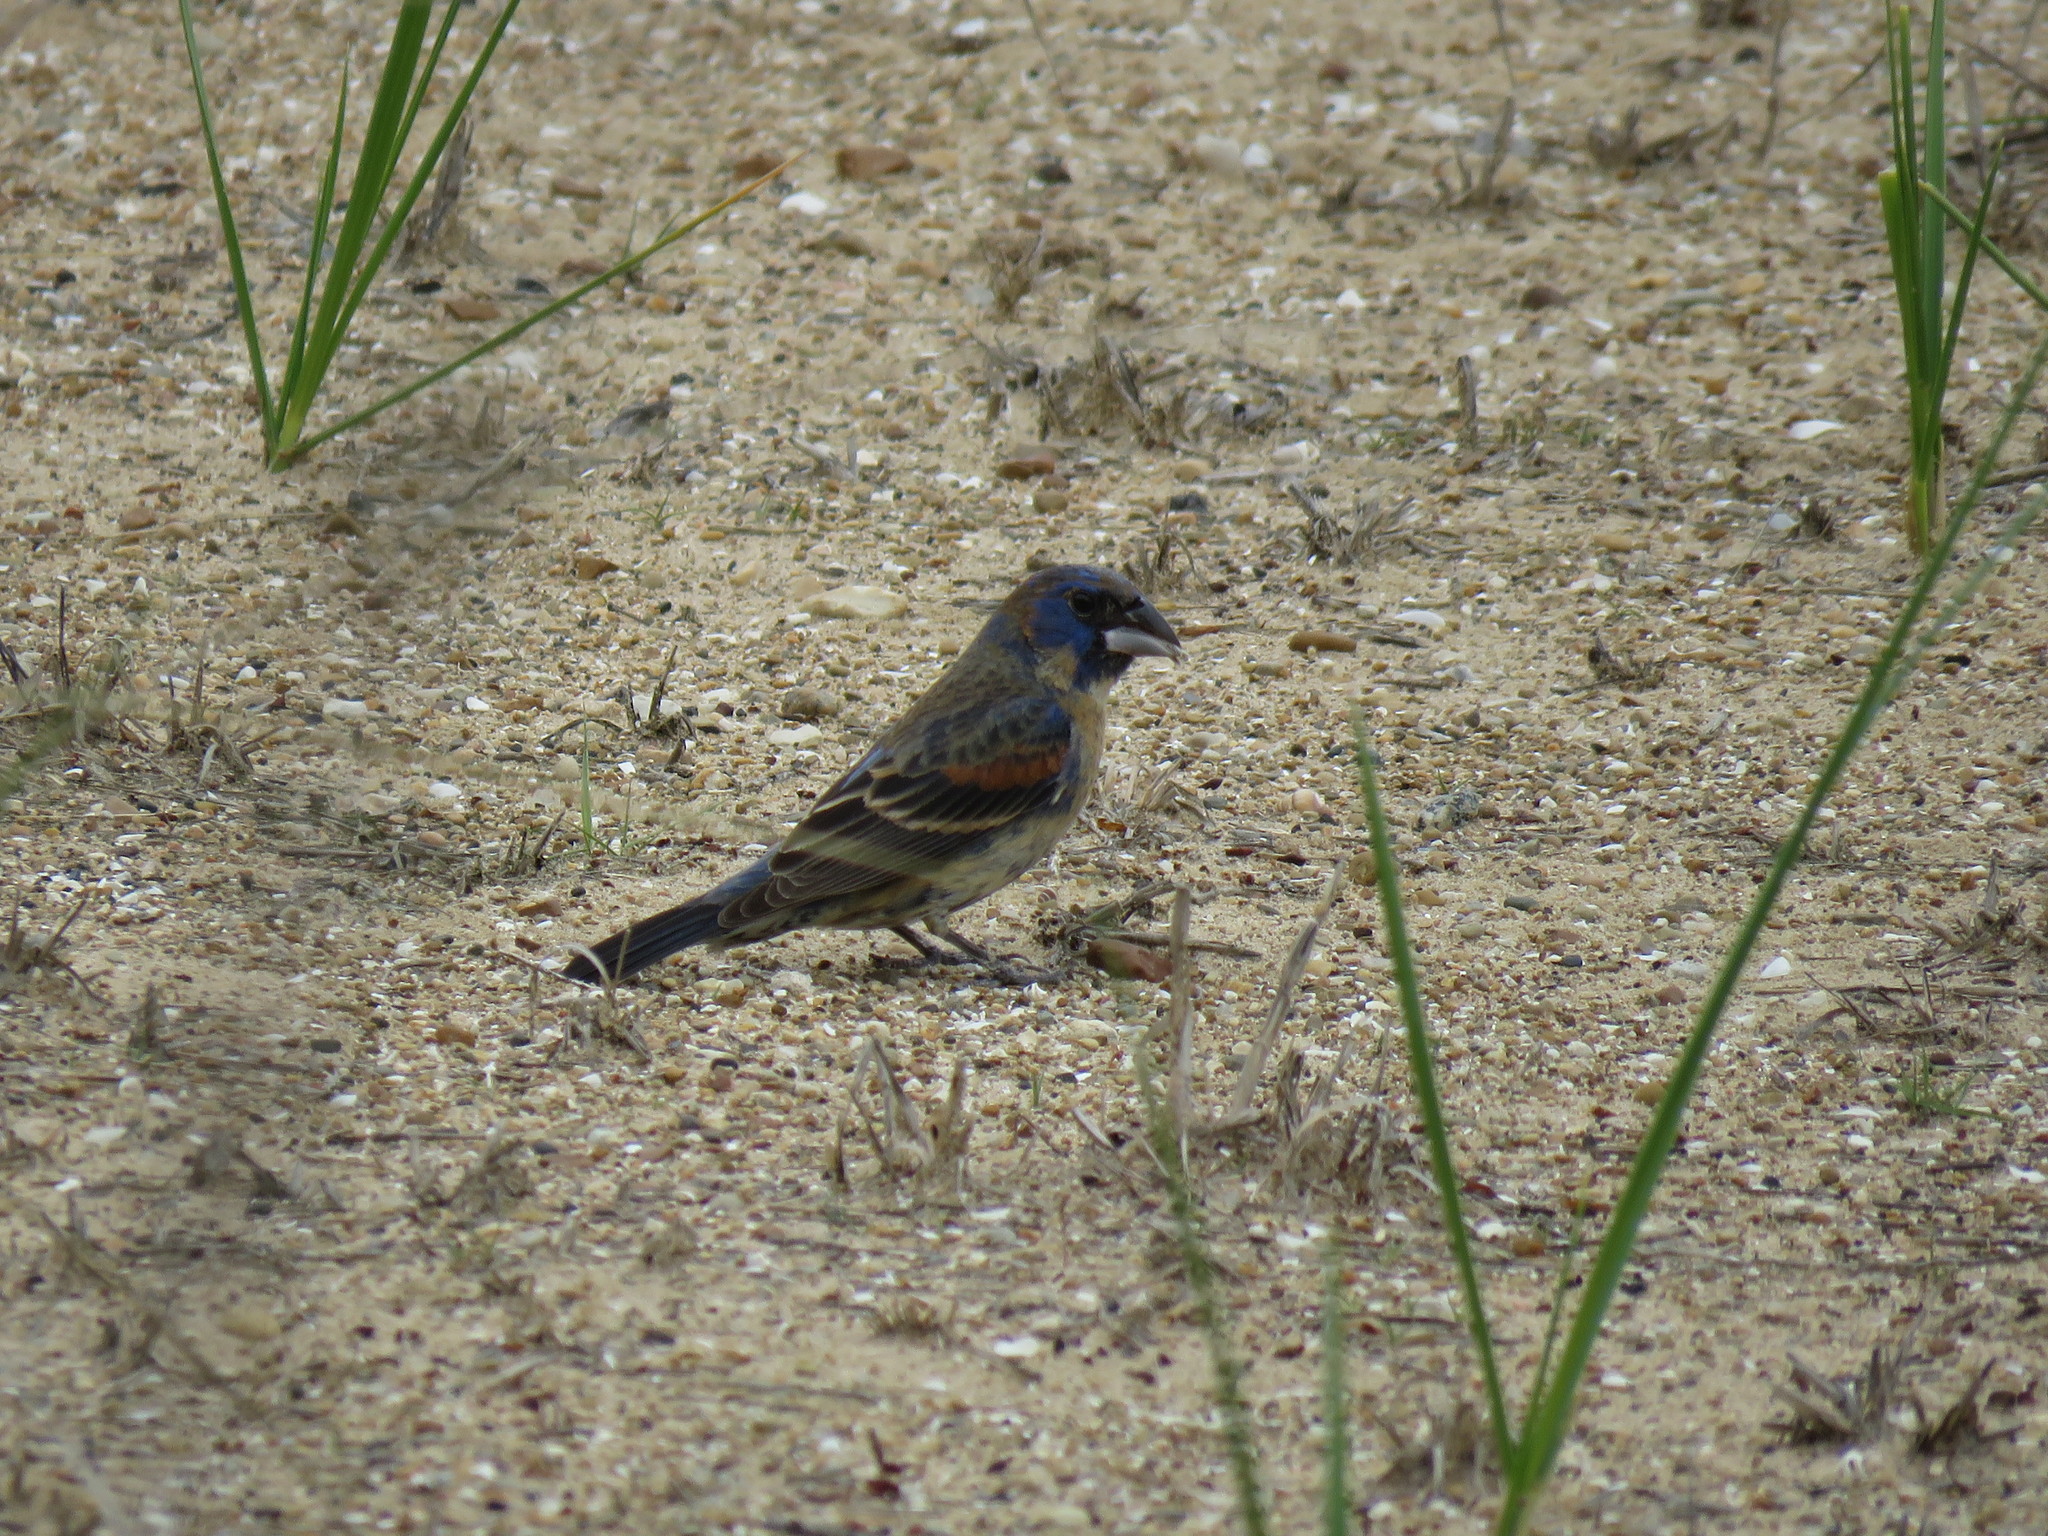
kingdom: Animalia
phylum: Chordata
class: Aves
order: Passeriformes
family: Cardinalidae
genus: Passerina
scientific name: Passerina caerulea
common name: Blue grosbeak
